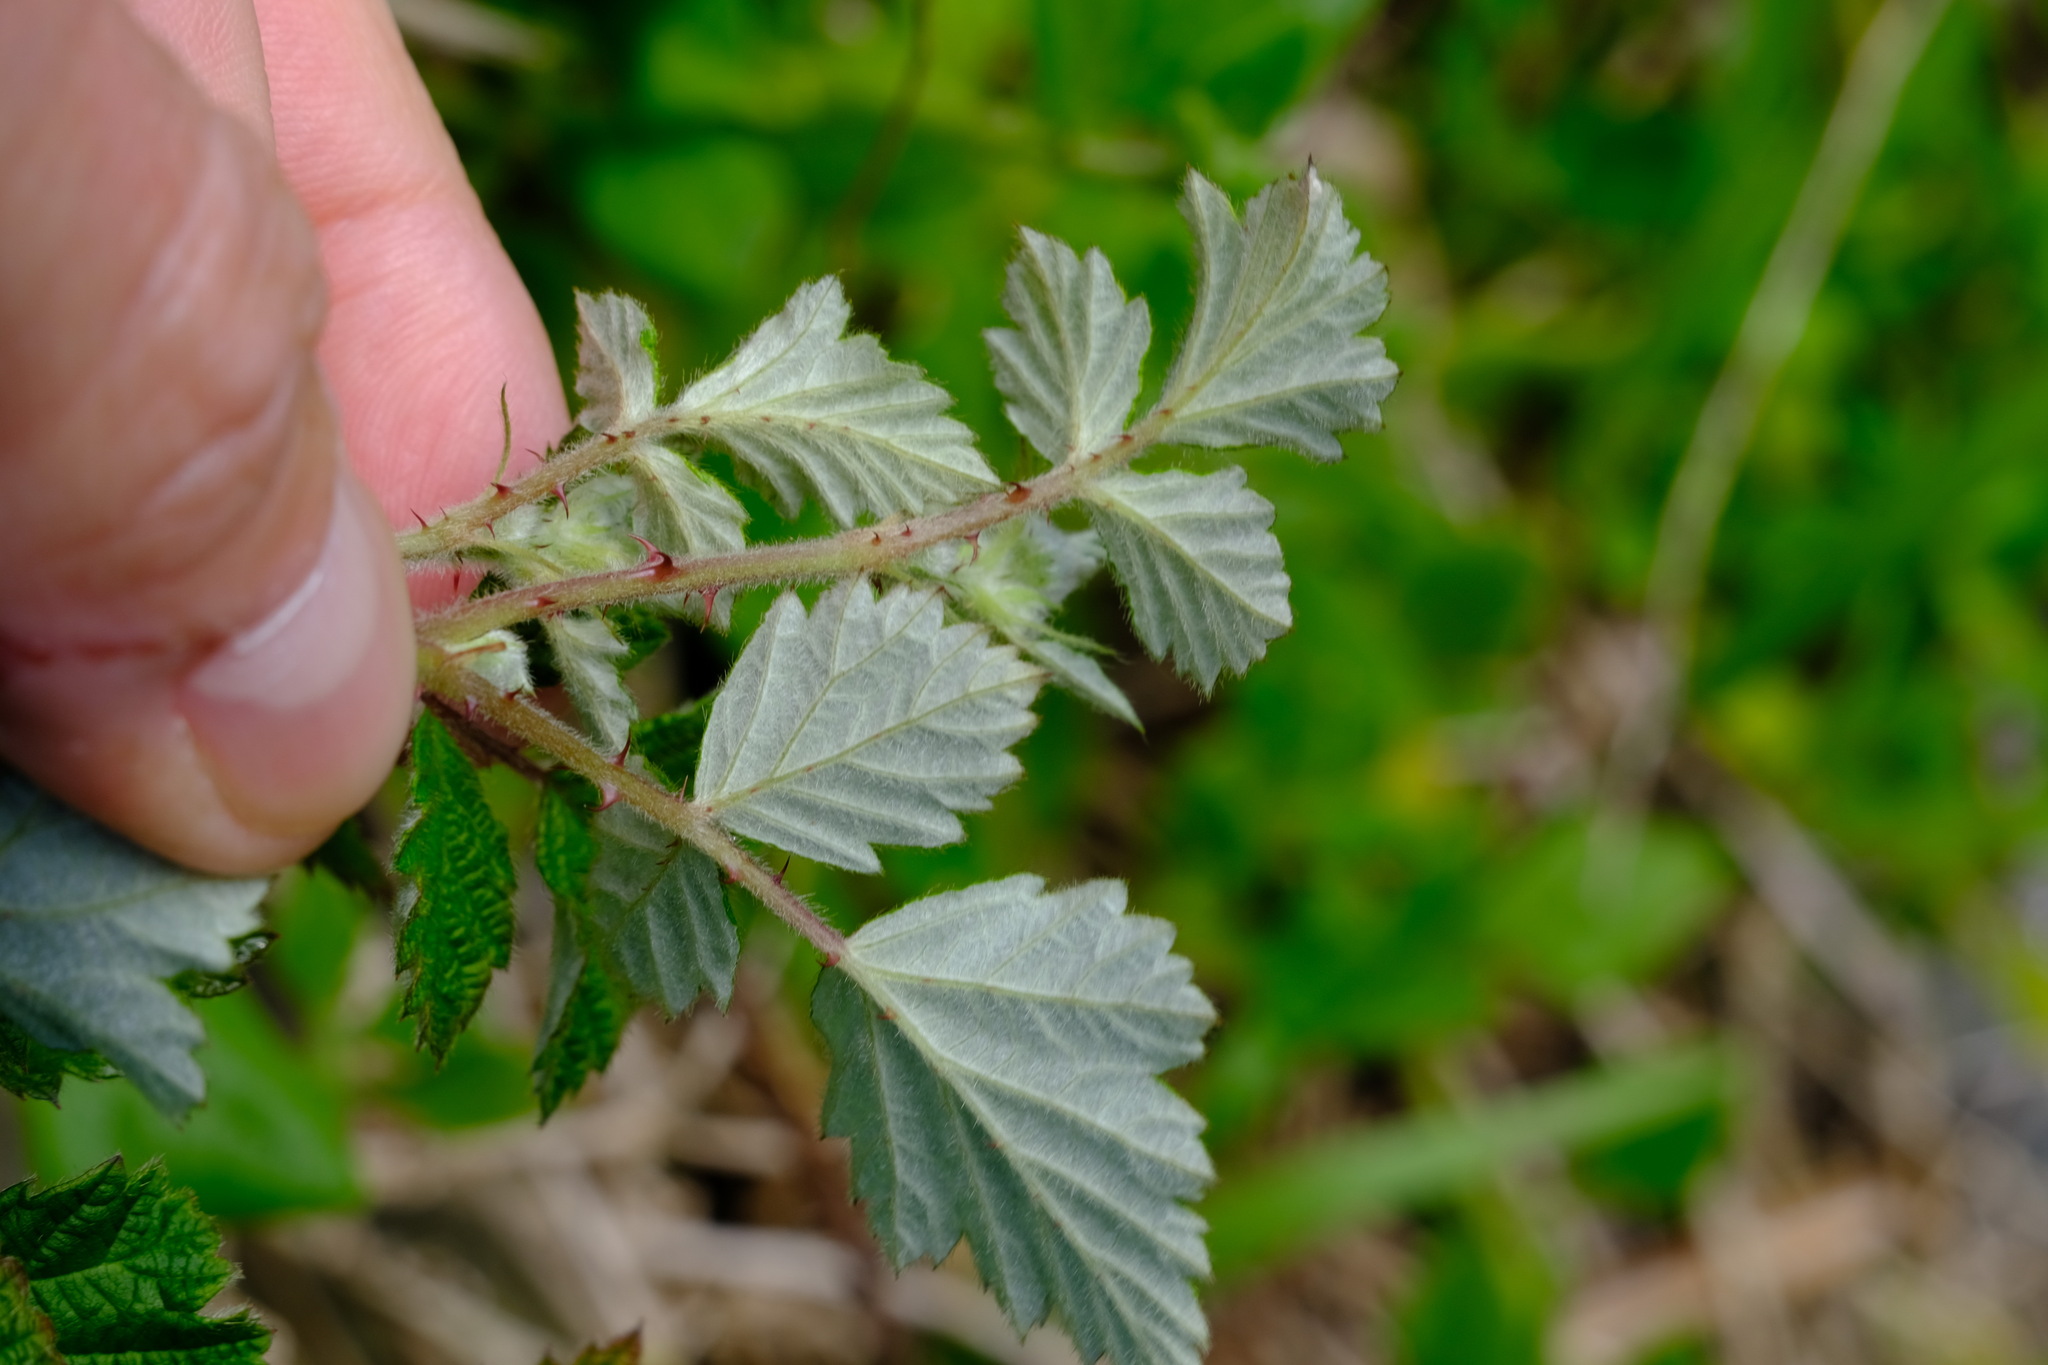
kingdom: Plantae
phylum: Tracheophyta
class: Magnoliopsida
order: Rosales
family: Rosaceae
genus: Rubus
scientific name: Rubus parvifolius
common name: Threeleaf blackberry
